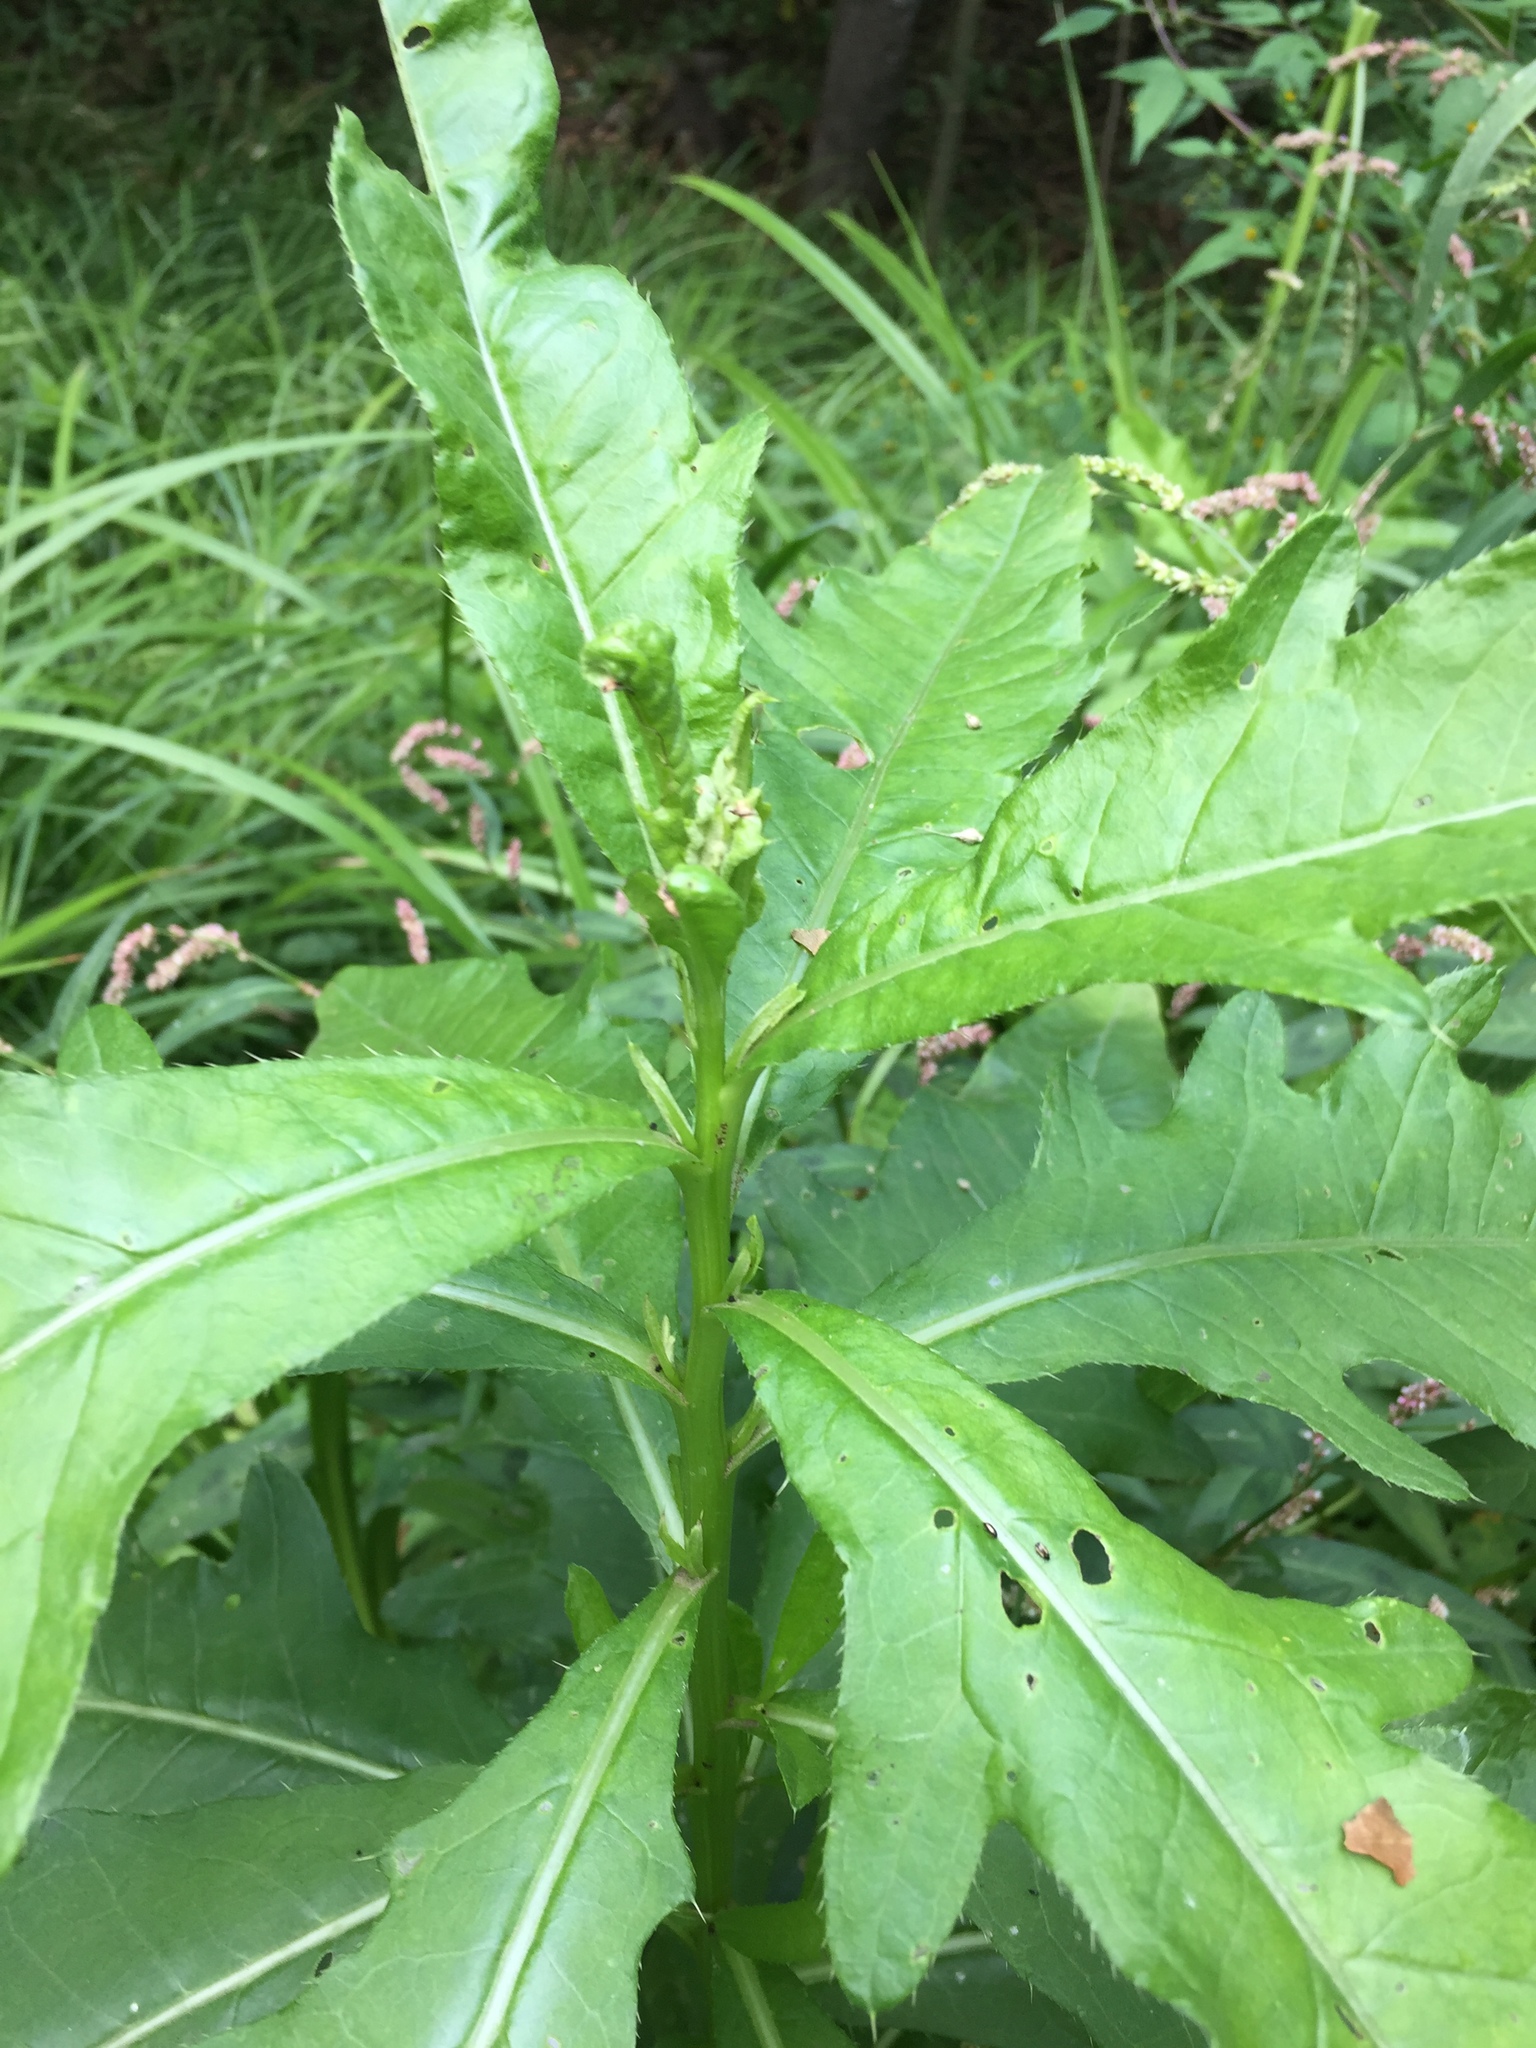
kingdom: Plantae
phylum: Tracheophyta
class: Magnoliopsida
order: Asterales
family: Asteraceae
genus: Cirsium
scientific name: Cirsium arvense
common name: Creeping thistle
